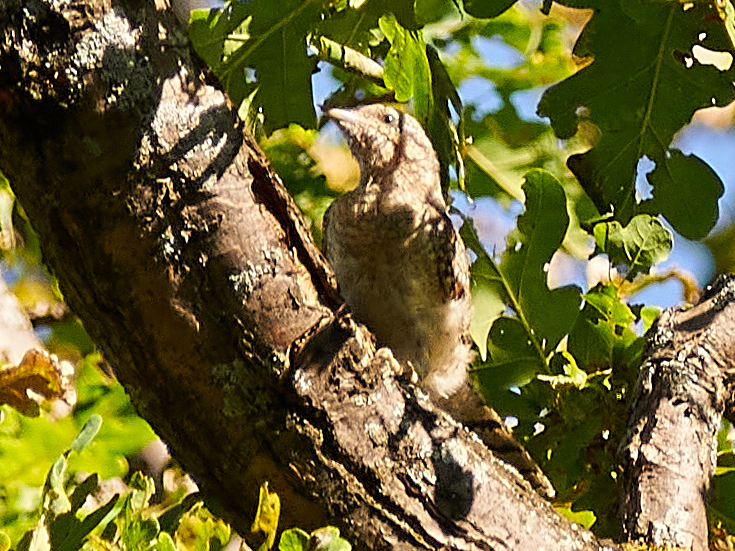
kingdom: Animalia
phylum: Chordata
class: Aves
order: Piciformes
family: Picidae
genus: Jynx
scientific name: Jynx torquilla
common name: Eurasian wryneck
